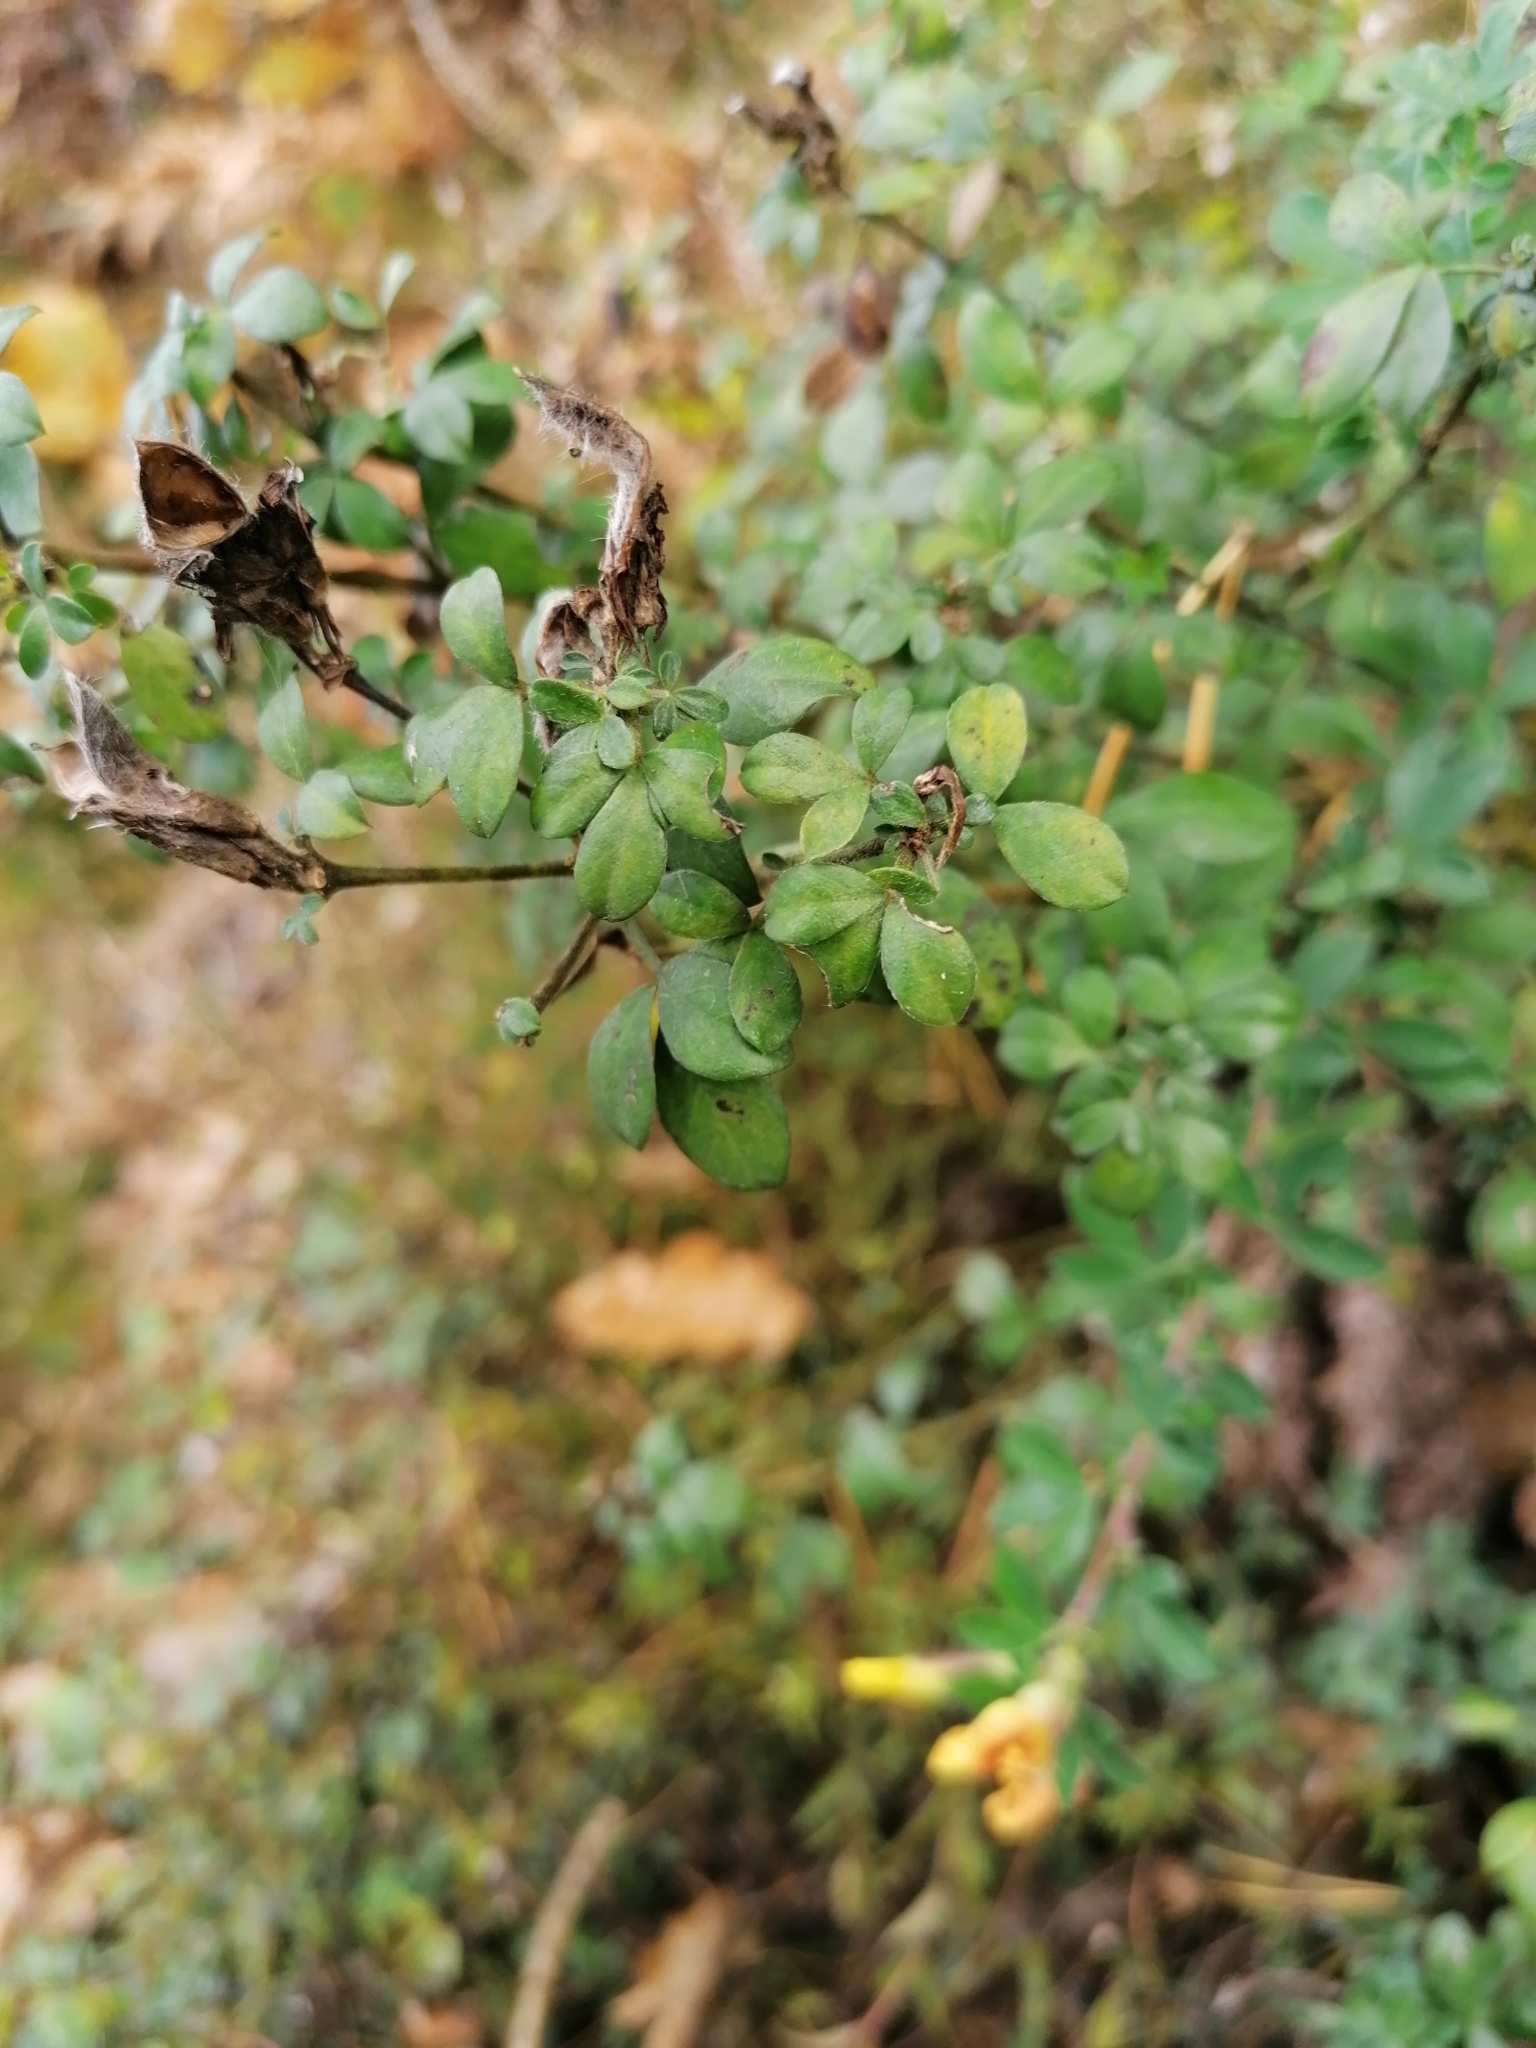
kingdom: Plantae
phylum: Tracheophyta
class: Magnoliopsida
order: Fabales
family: Fabaceae
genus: Chamaecytisus
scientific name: Chamaecytisus hirsutus
